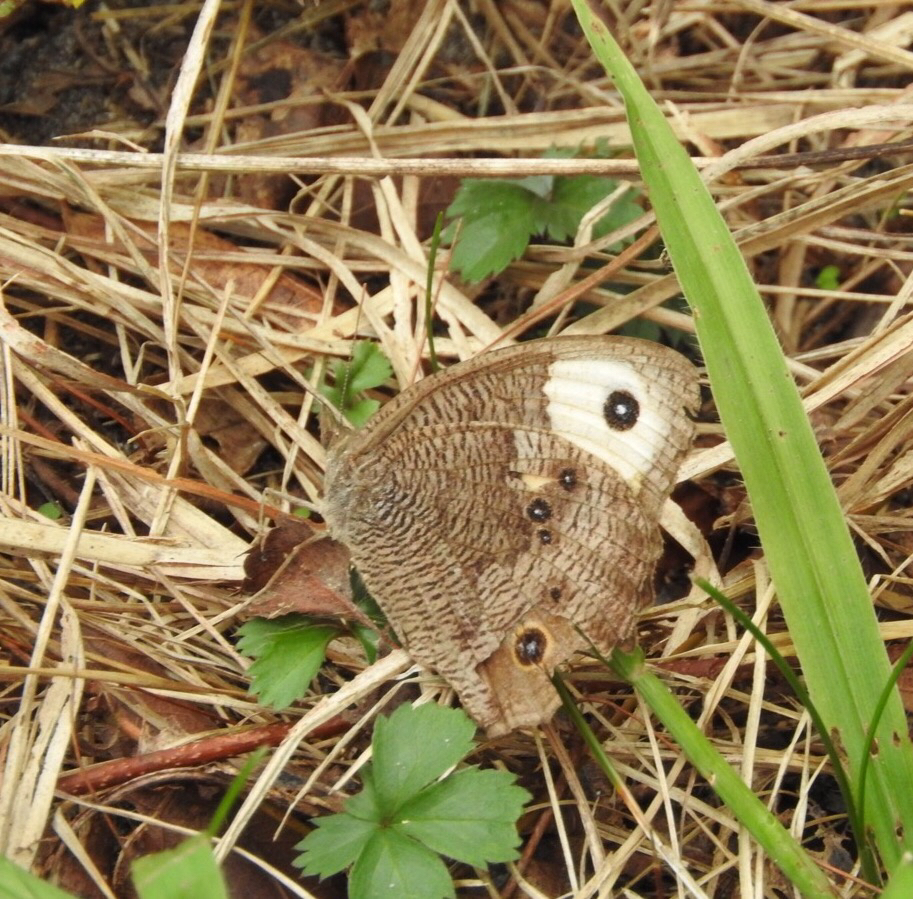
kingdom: Animalia
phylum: Arthropoda
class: Insecta
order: Lepidoptera
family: Nymphalidae
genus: Cercyonis
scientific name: Cercyonis pegala
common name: Common wood-nymph
